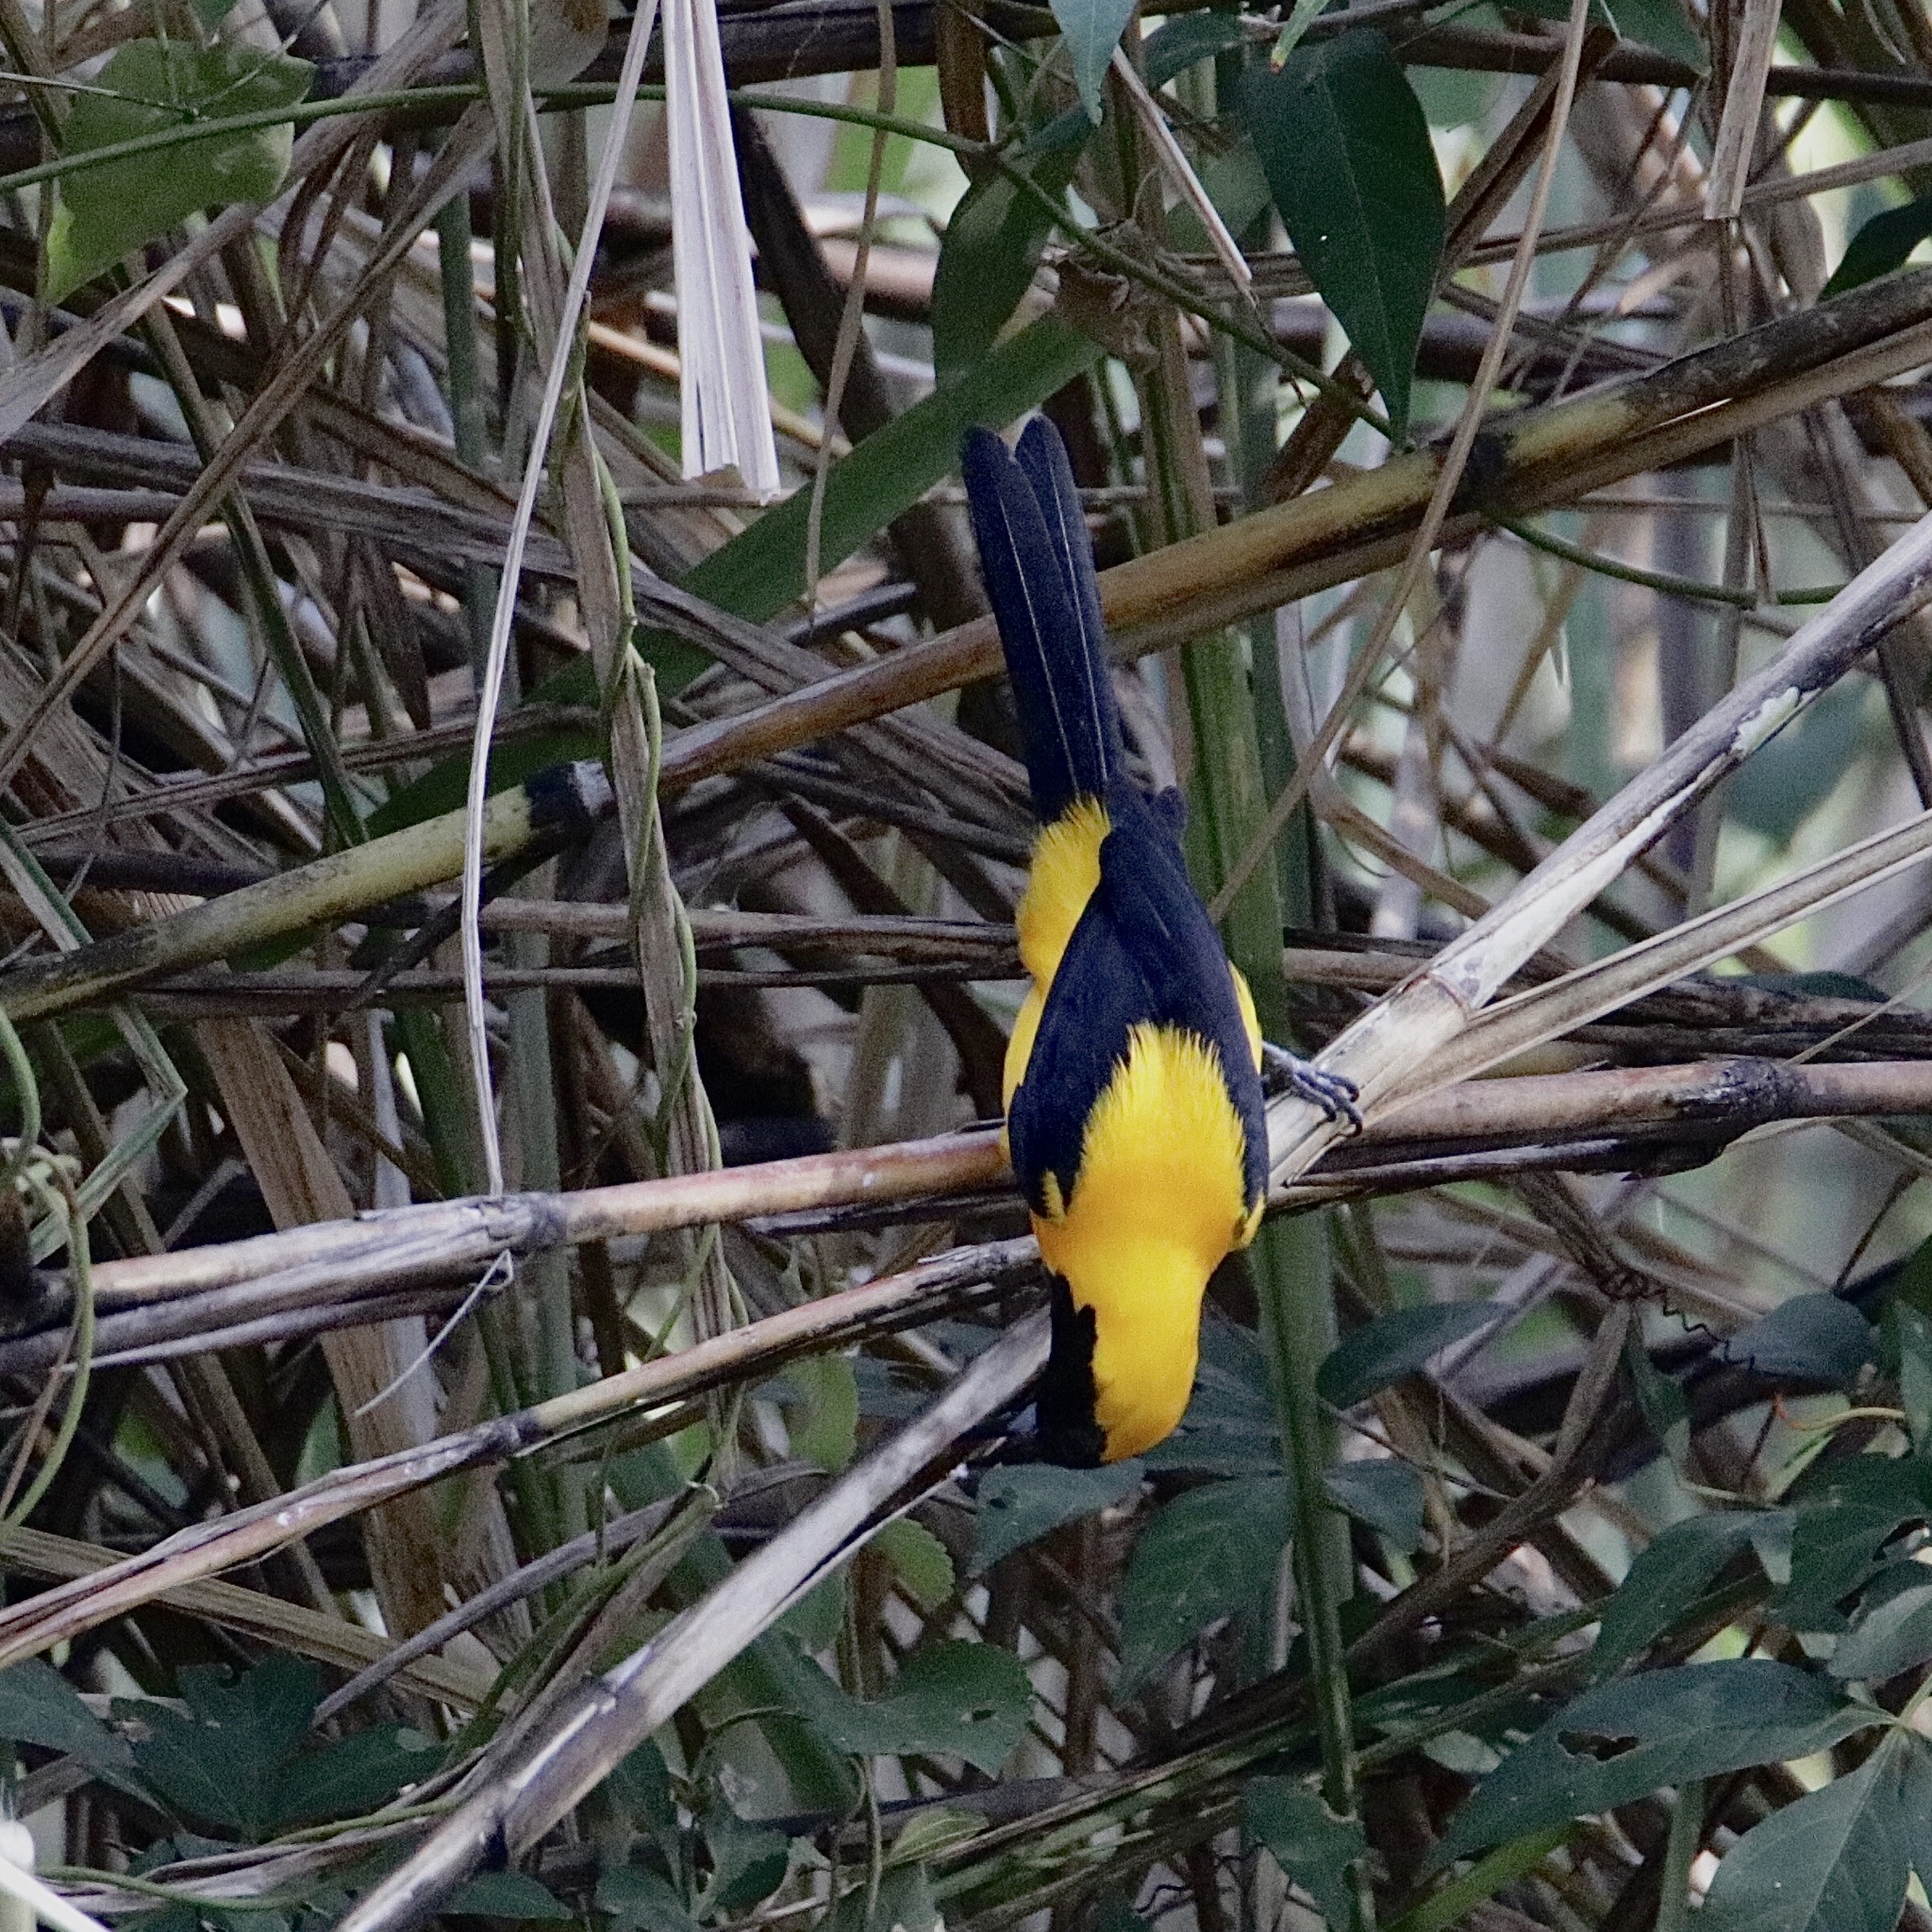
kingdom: Animalia
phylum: Chordata
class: Aves
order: Passeriformes
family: Icteridae
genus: Icterus
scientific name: Icterus chrysater
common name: Yellow-backed oriole
